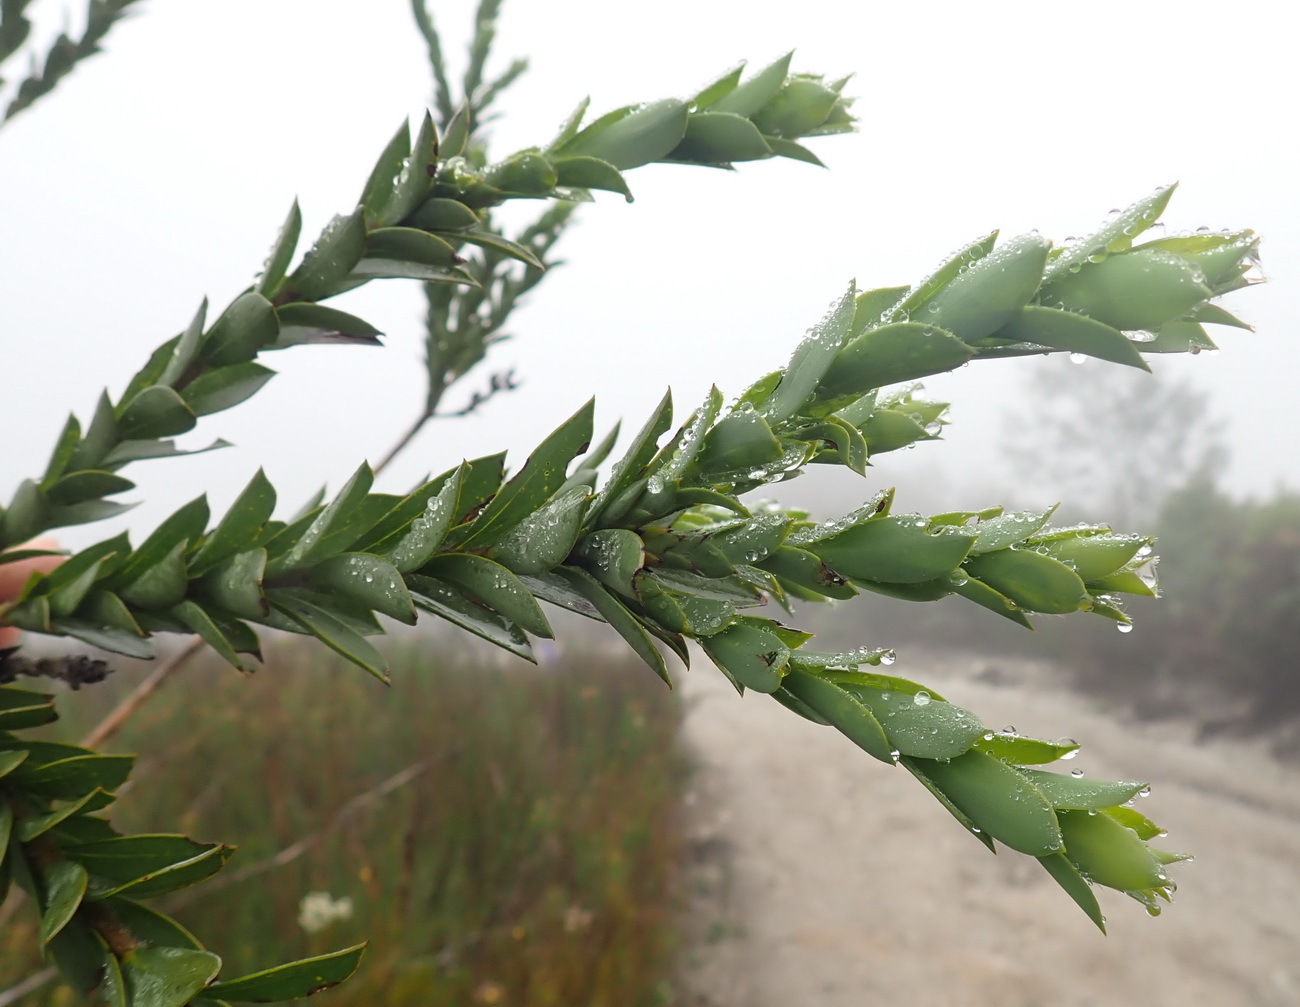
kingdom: Plantae
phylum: Tracheophyta
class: Magnoliopsida
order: Fabales
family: Fabaceae
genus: Liparia
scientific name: Liparia hirsuta
